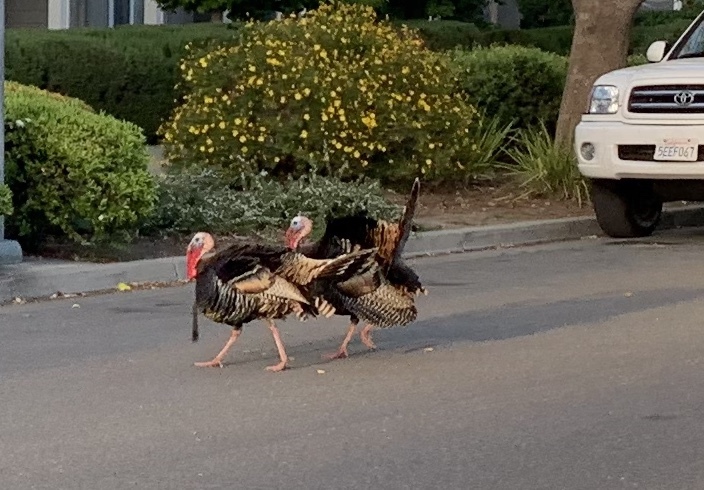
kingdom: Animalia
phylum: Chordata
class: Aves
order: Galliformes
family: Phasianidae
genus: Meleagris
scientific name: Meleagris gallopavo
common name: Wild turkey
